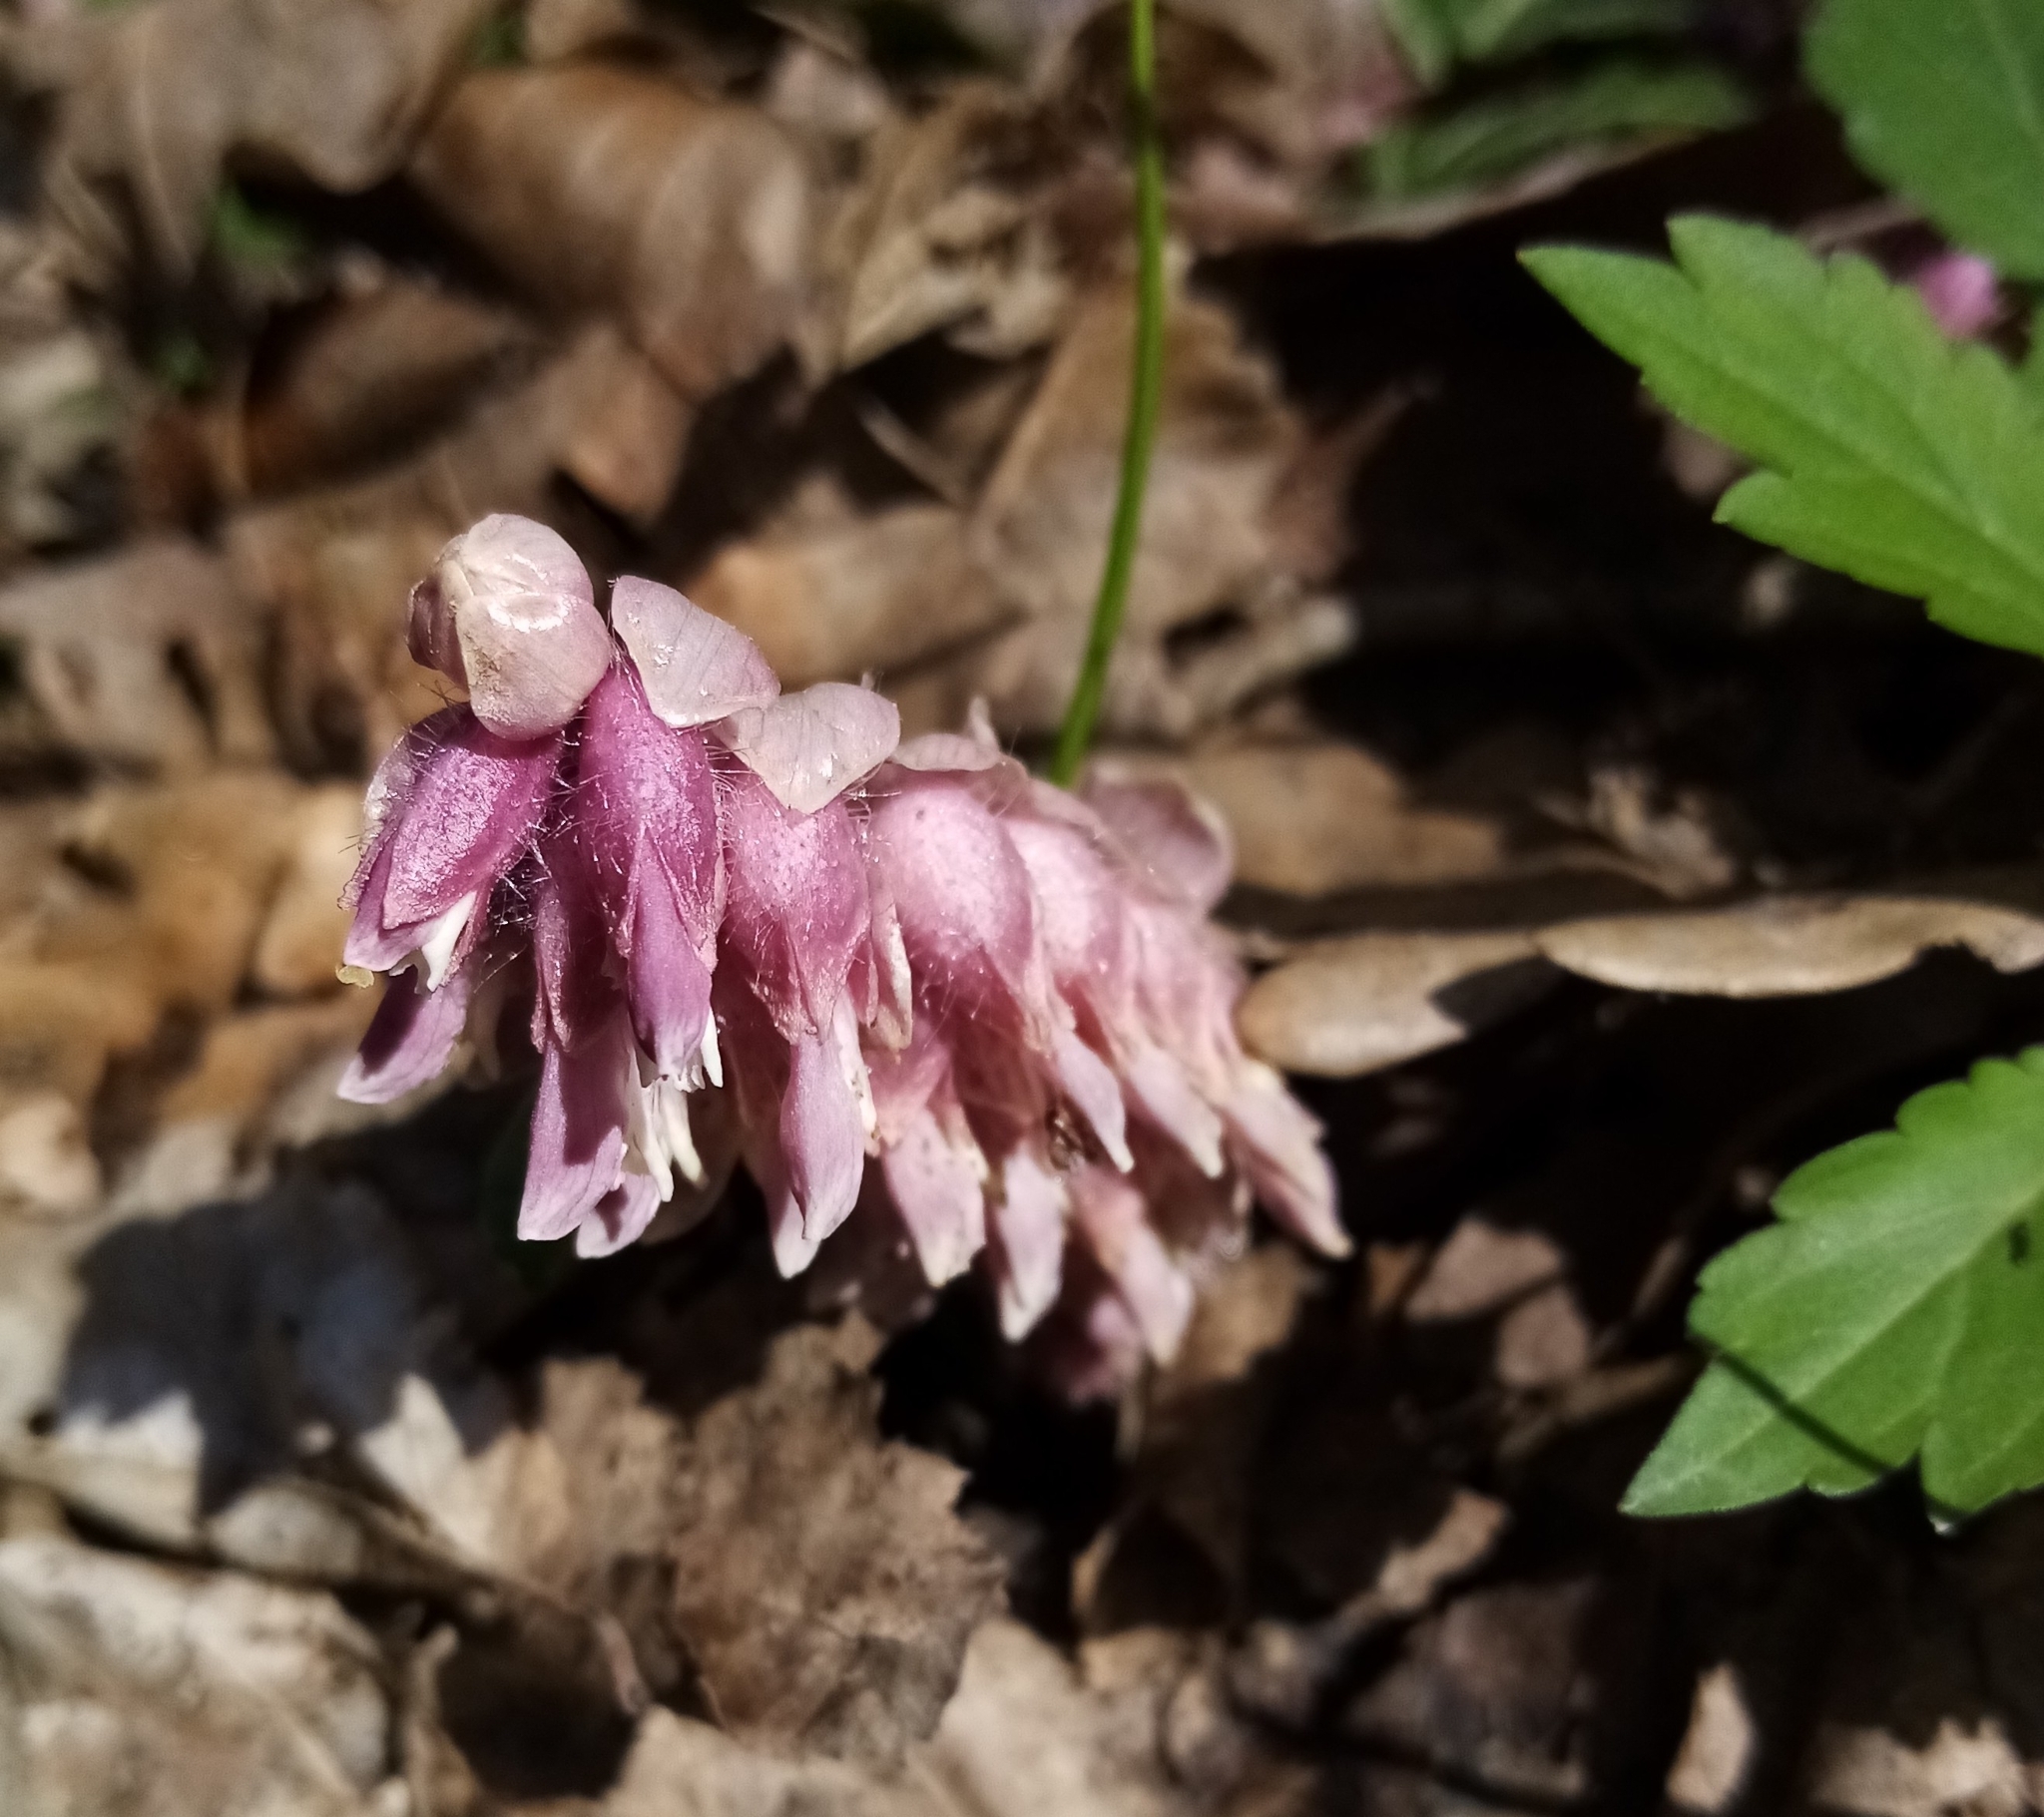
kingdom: Plantae
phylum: Tracheophyta
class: Magnoliopsida
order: Lamiales
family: Orobanchaceae
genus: Lathraea
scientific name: Lathraea squamaria
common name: Toothwort
